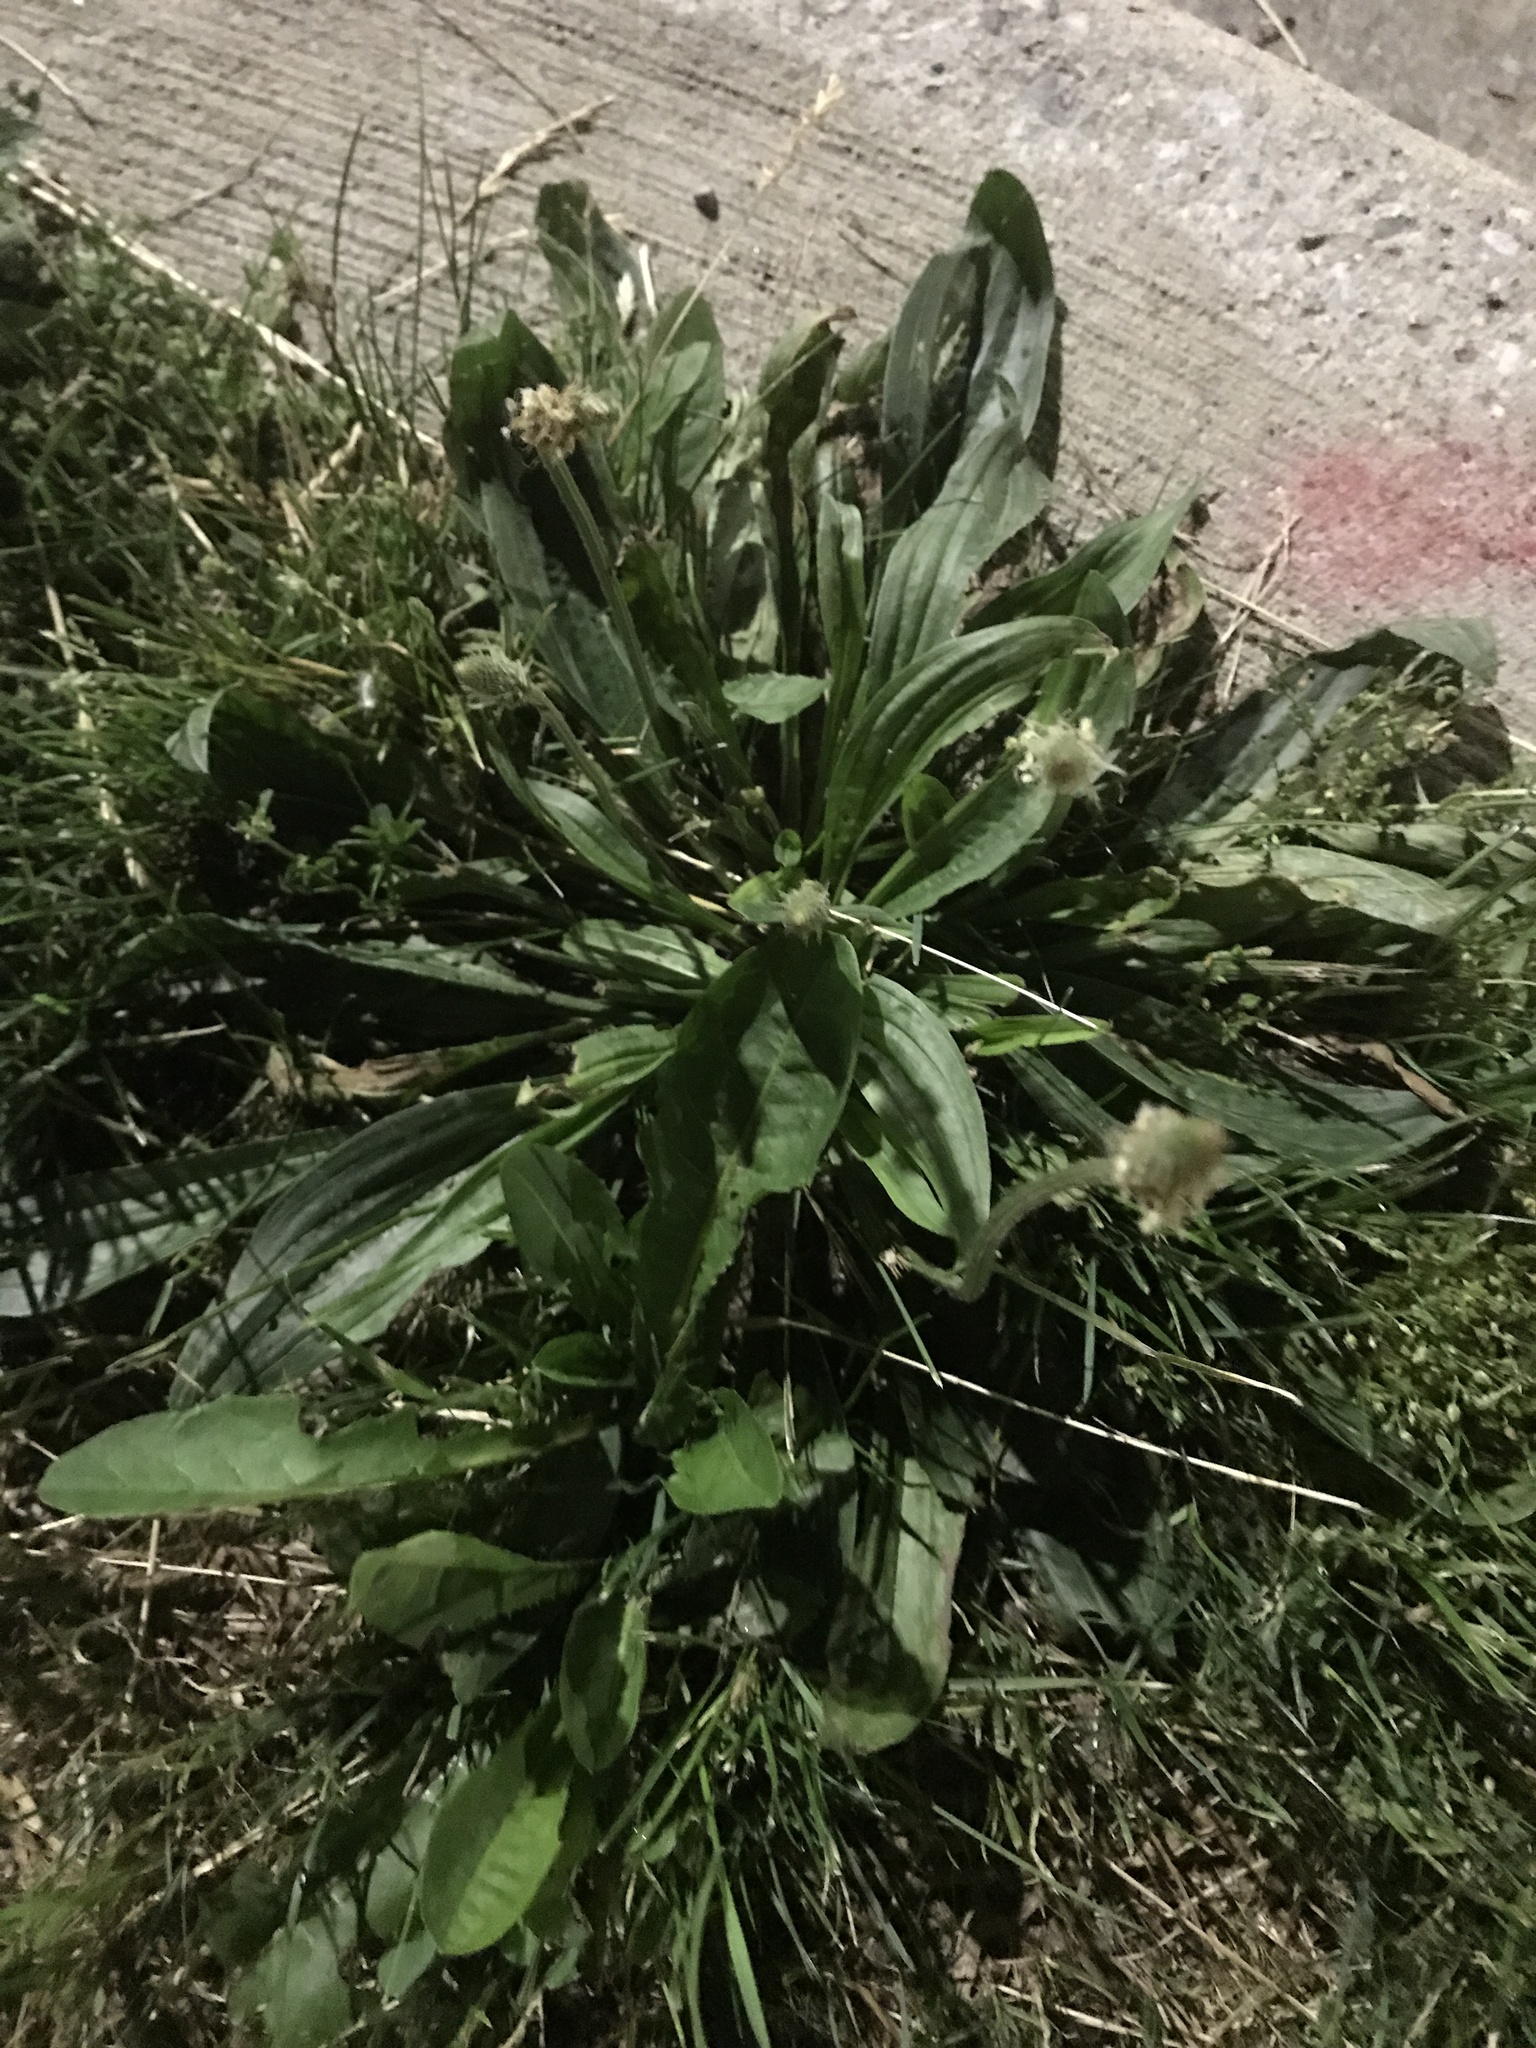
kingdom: Plantae
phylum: Tracheophyta
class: Magnoliopsida
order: Lamiales
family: Plantaginaceae
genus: Plantago
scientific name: Plantago lanceolata
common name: Ribwort plantain
